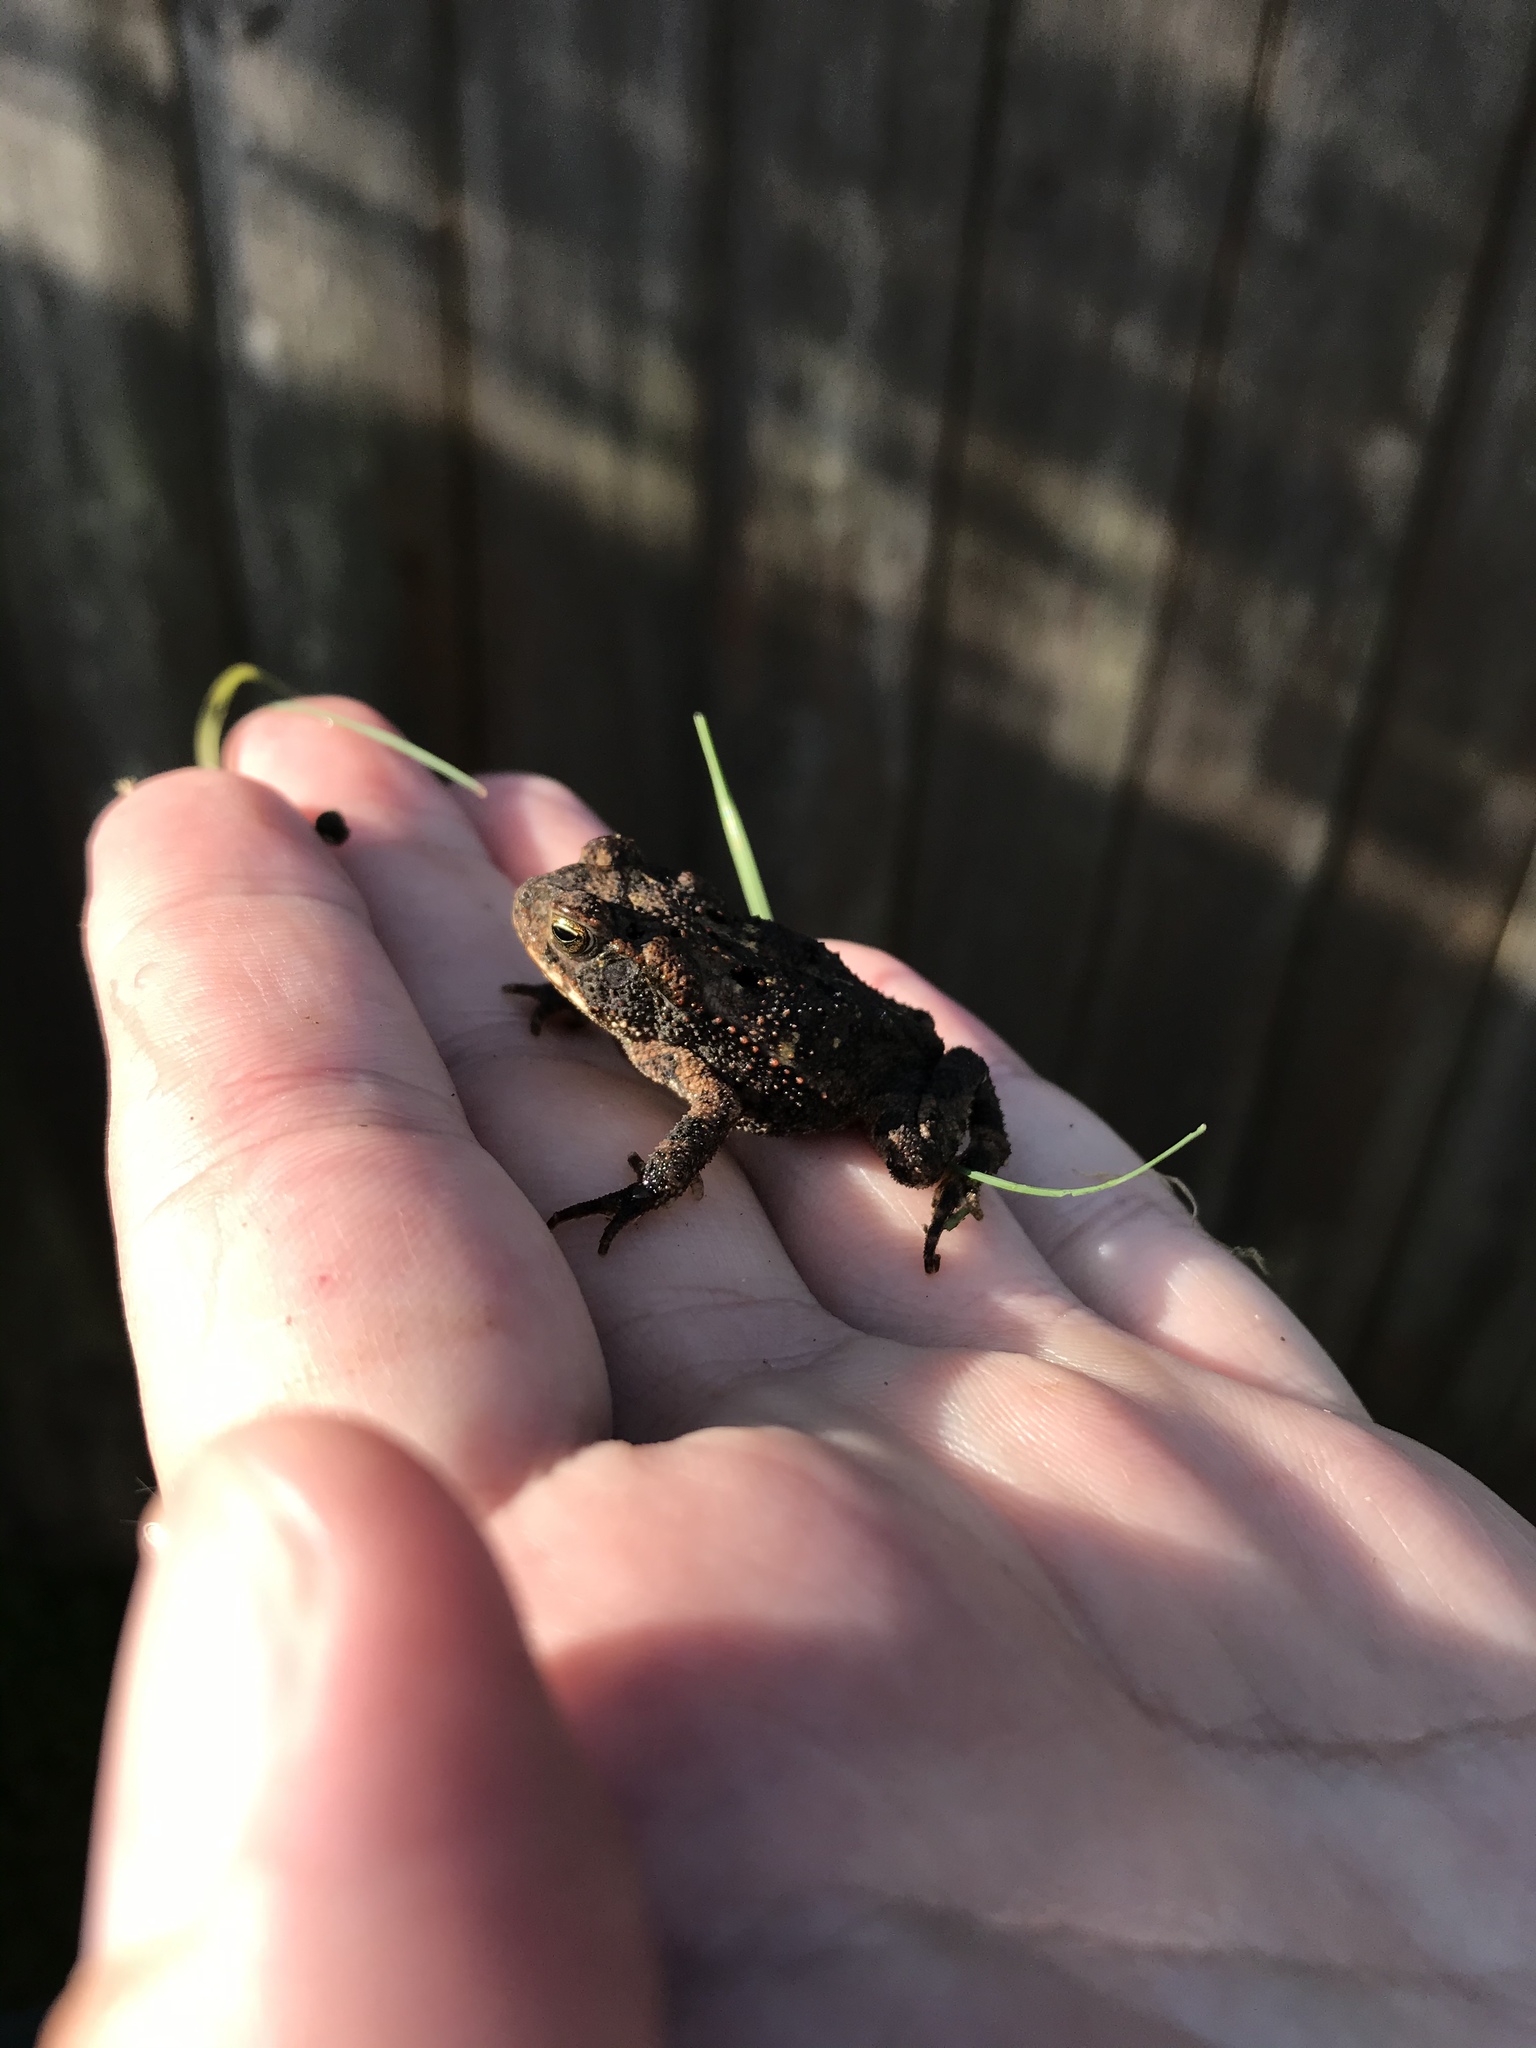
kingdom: Animalia
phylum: Chordata
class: Amphibia
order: Anura
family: Bufonidae
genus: Incilius
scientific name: Incilius nebulifer
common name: Gulf coast toad
